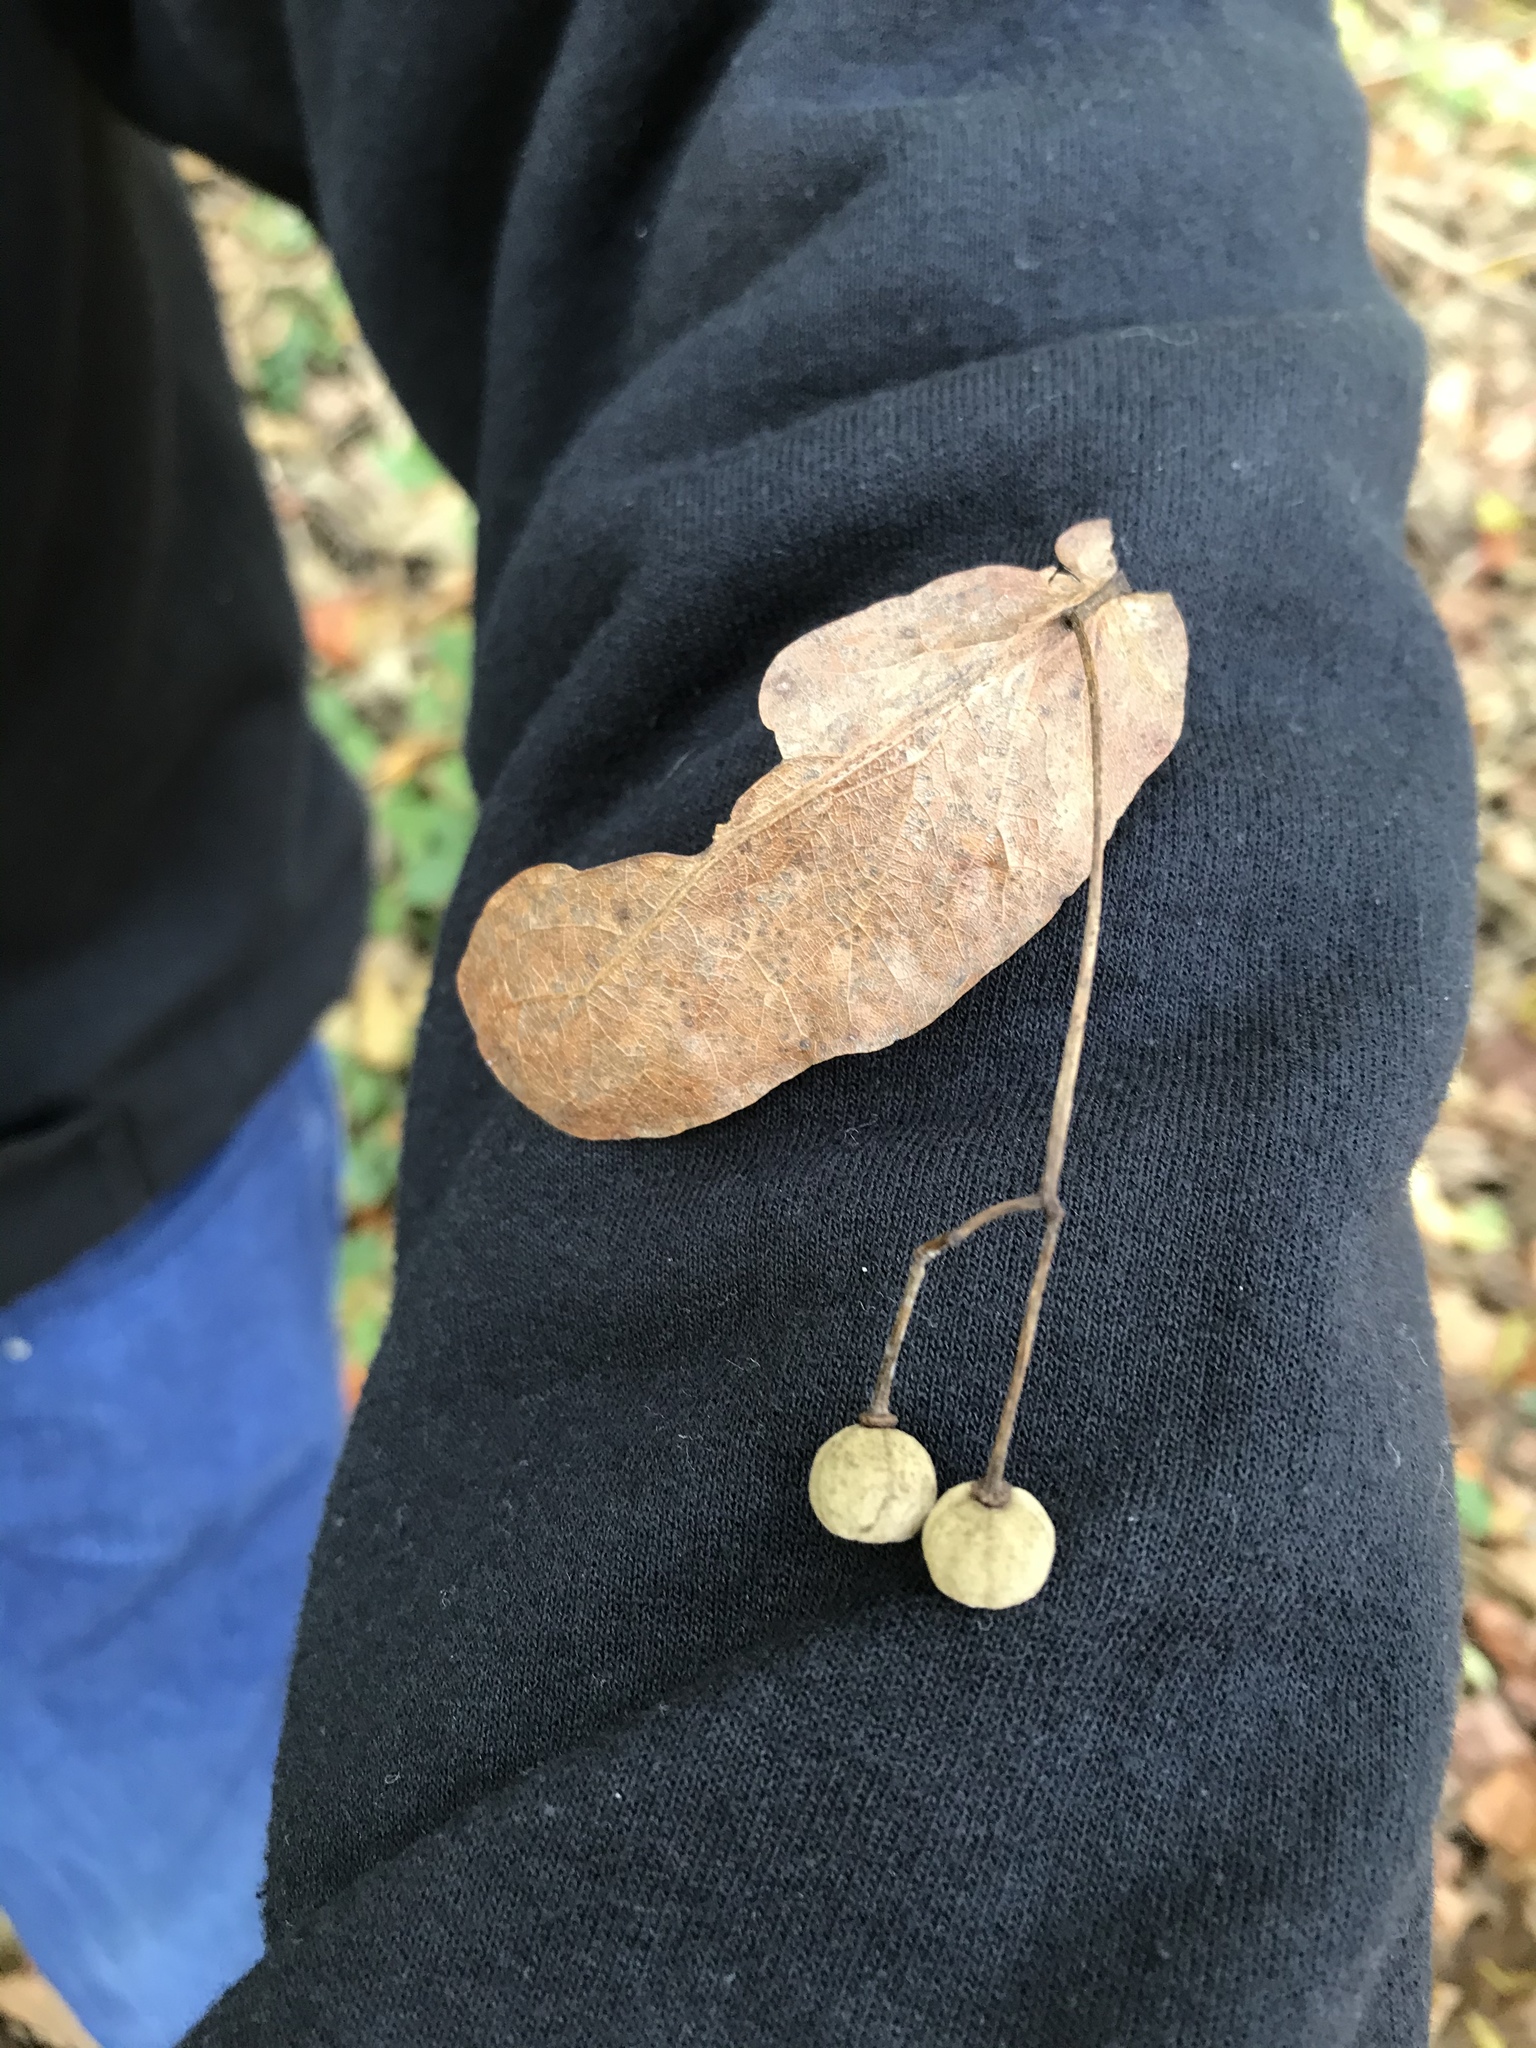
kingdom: Plantae
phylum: Tracheophyta
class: Magnoliopsida
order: Malvales
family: Malvaceae
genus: Tilia
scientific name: Tilia americana
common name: Basswood
